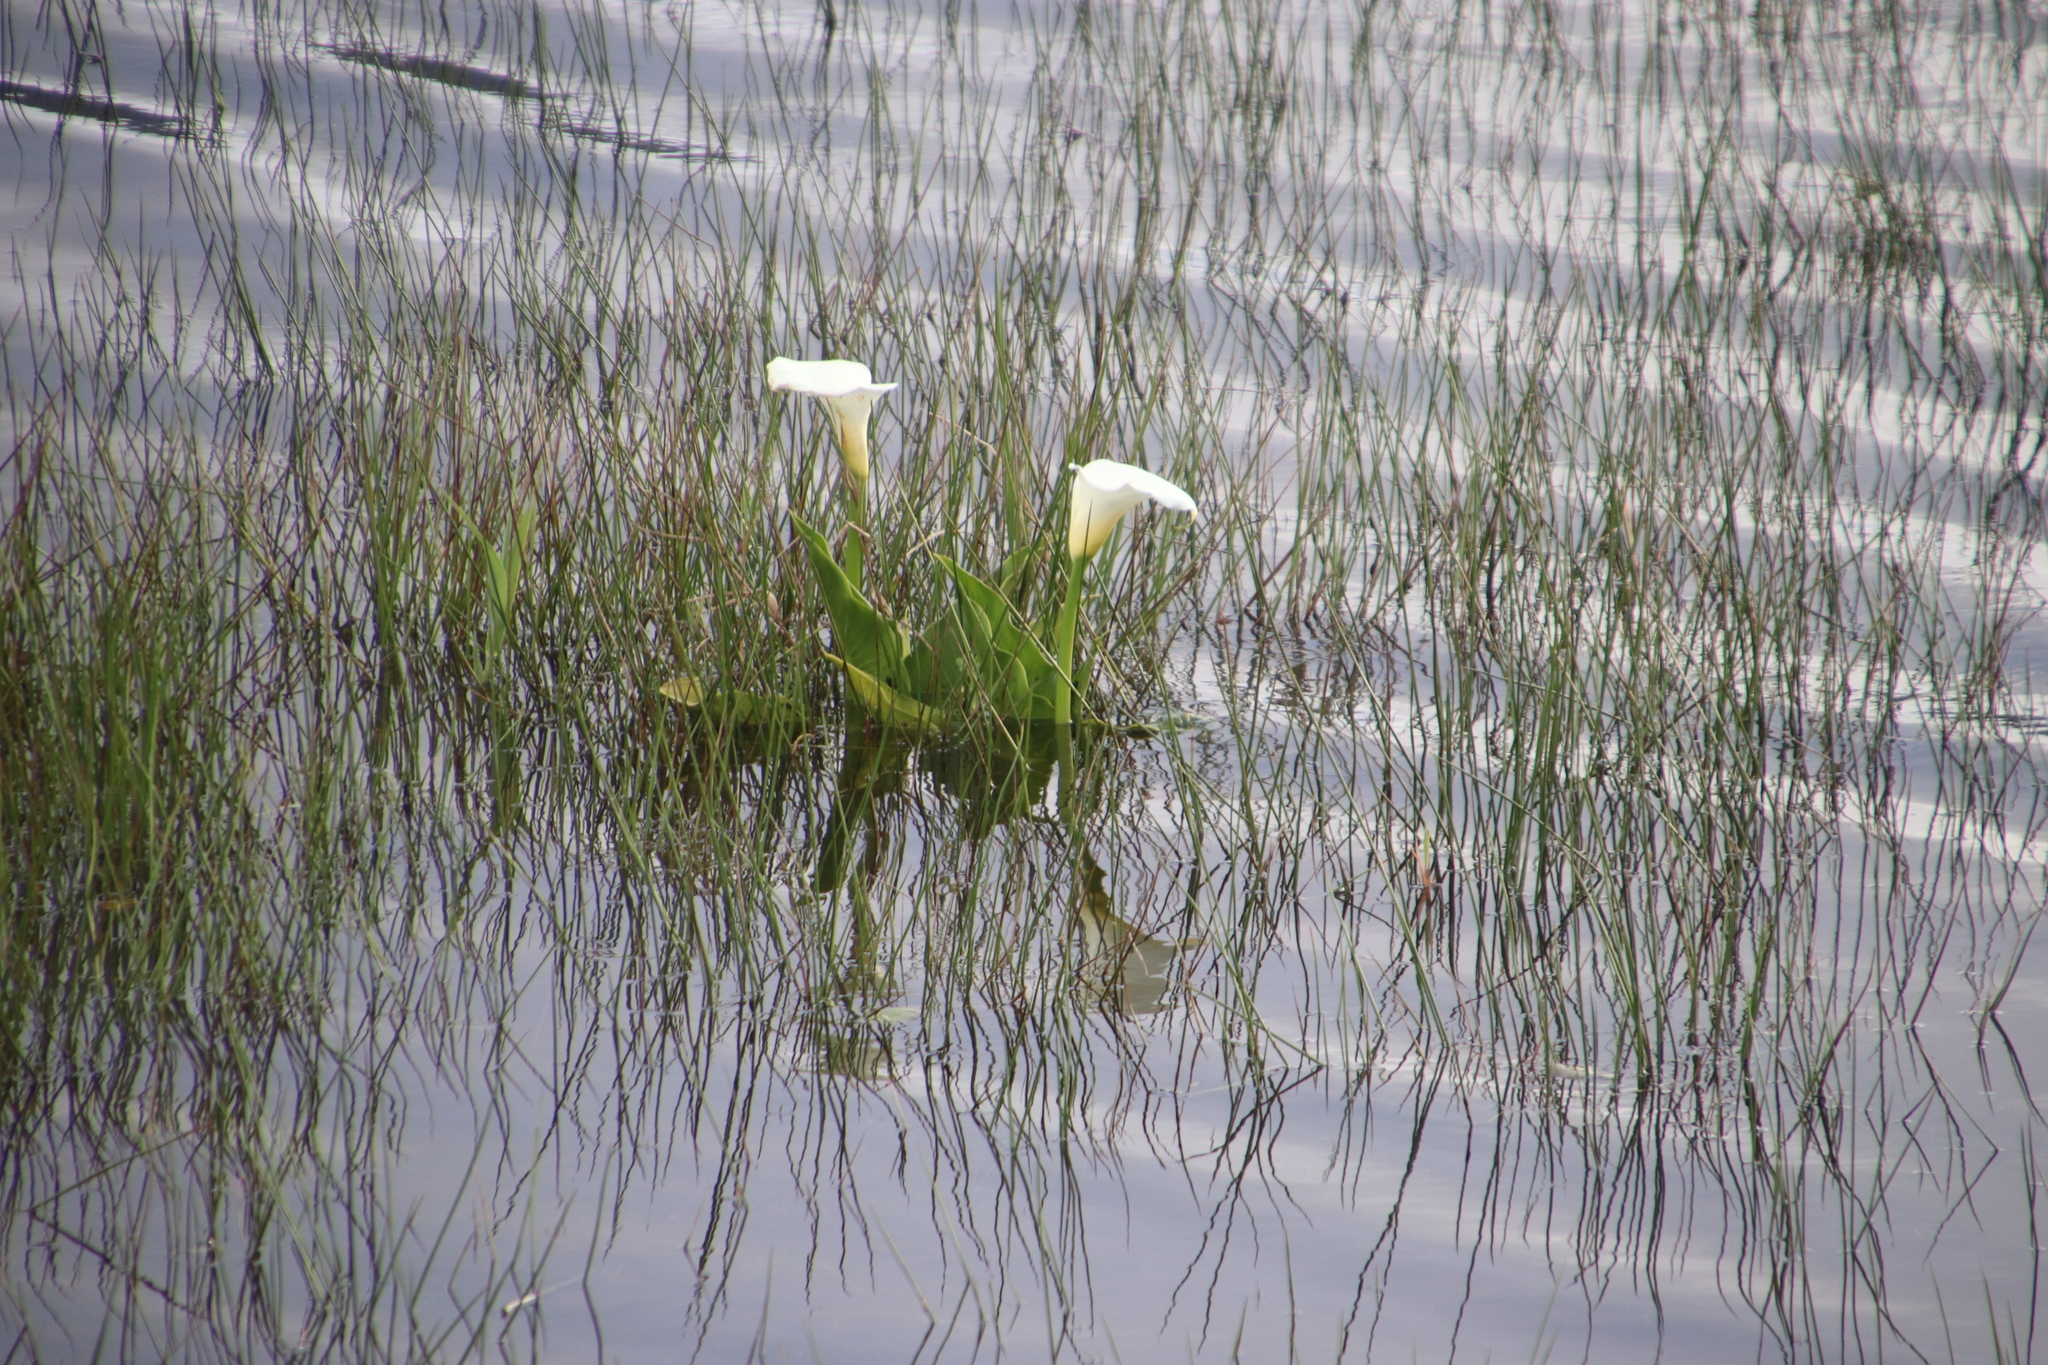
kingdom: Plantae
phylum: Tracheophyta
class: Liliopsida
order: Alismatales
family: Araceae
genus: Zantedeschia
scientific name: Zantedeschia aethiopica
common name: Altar-lily
